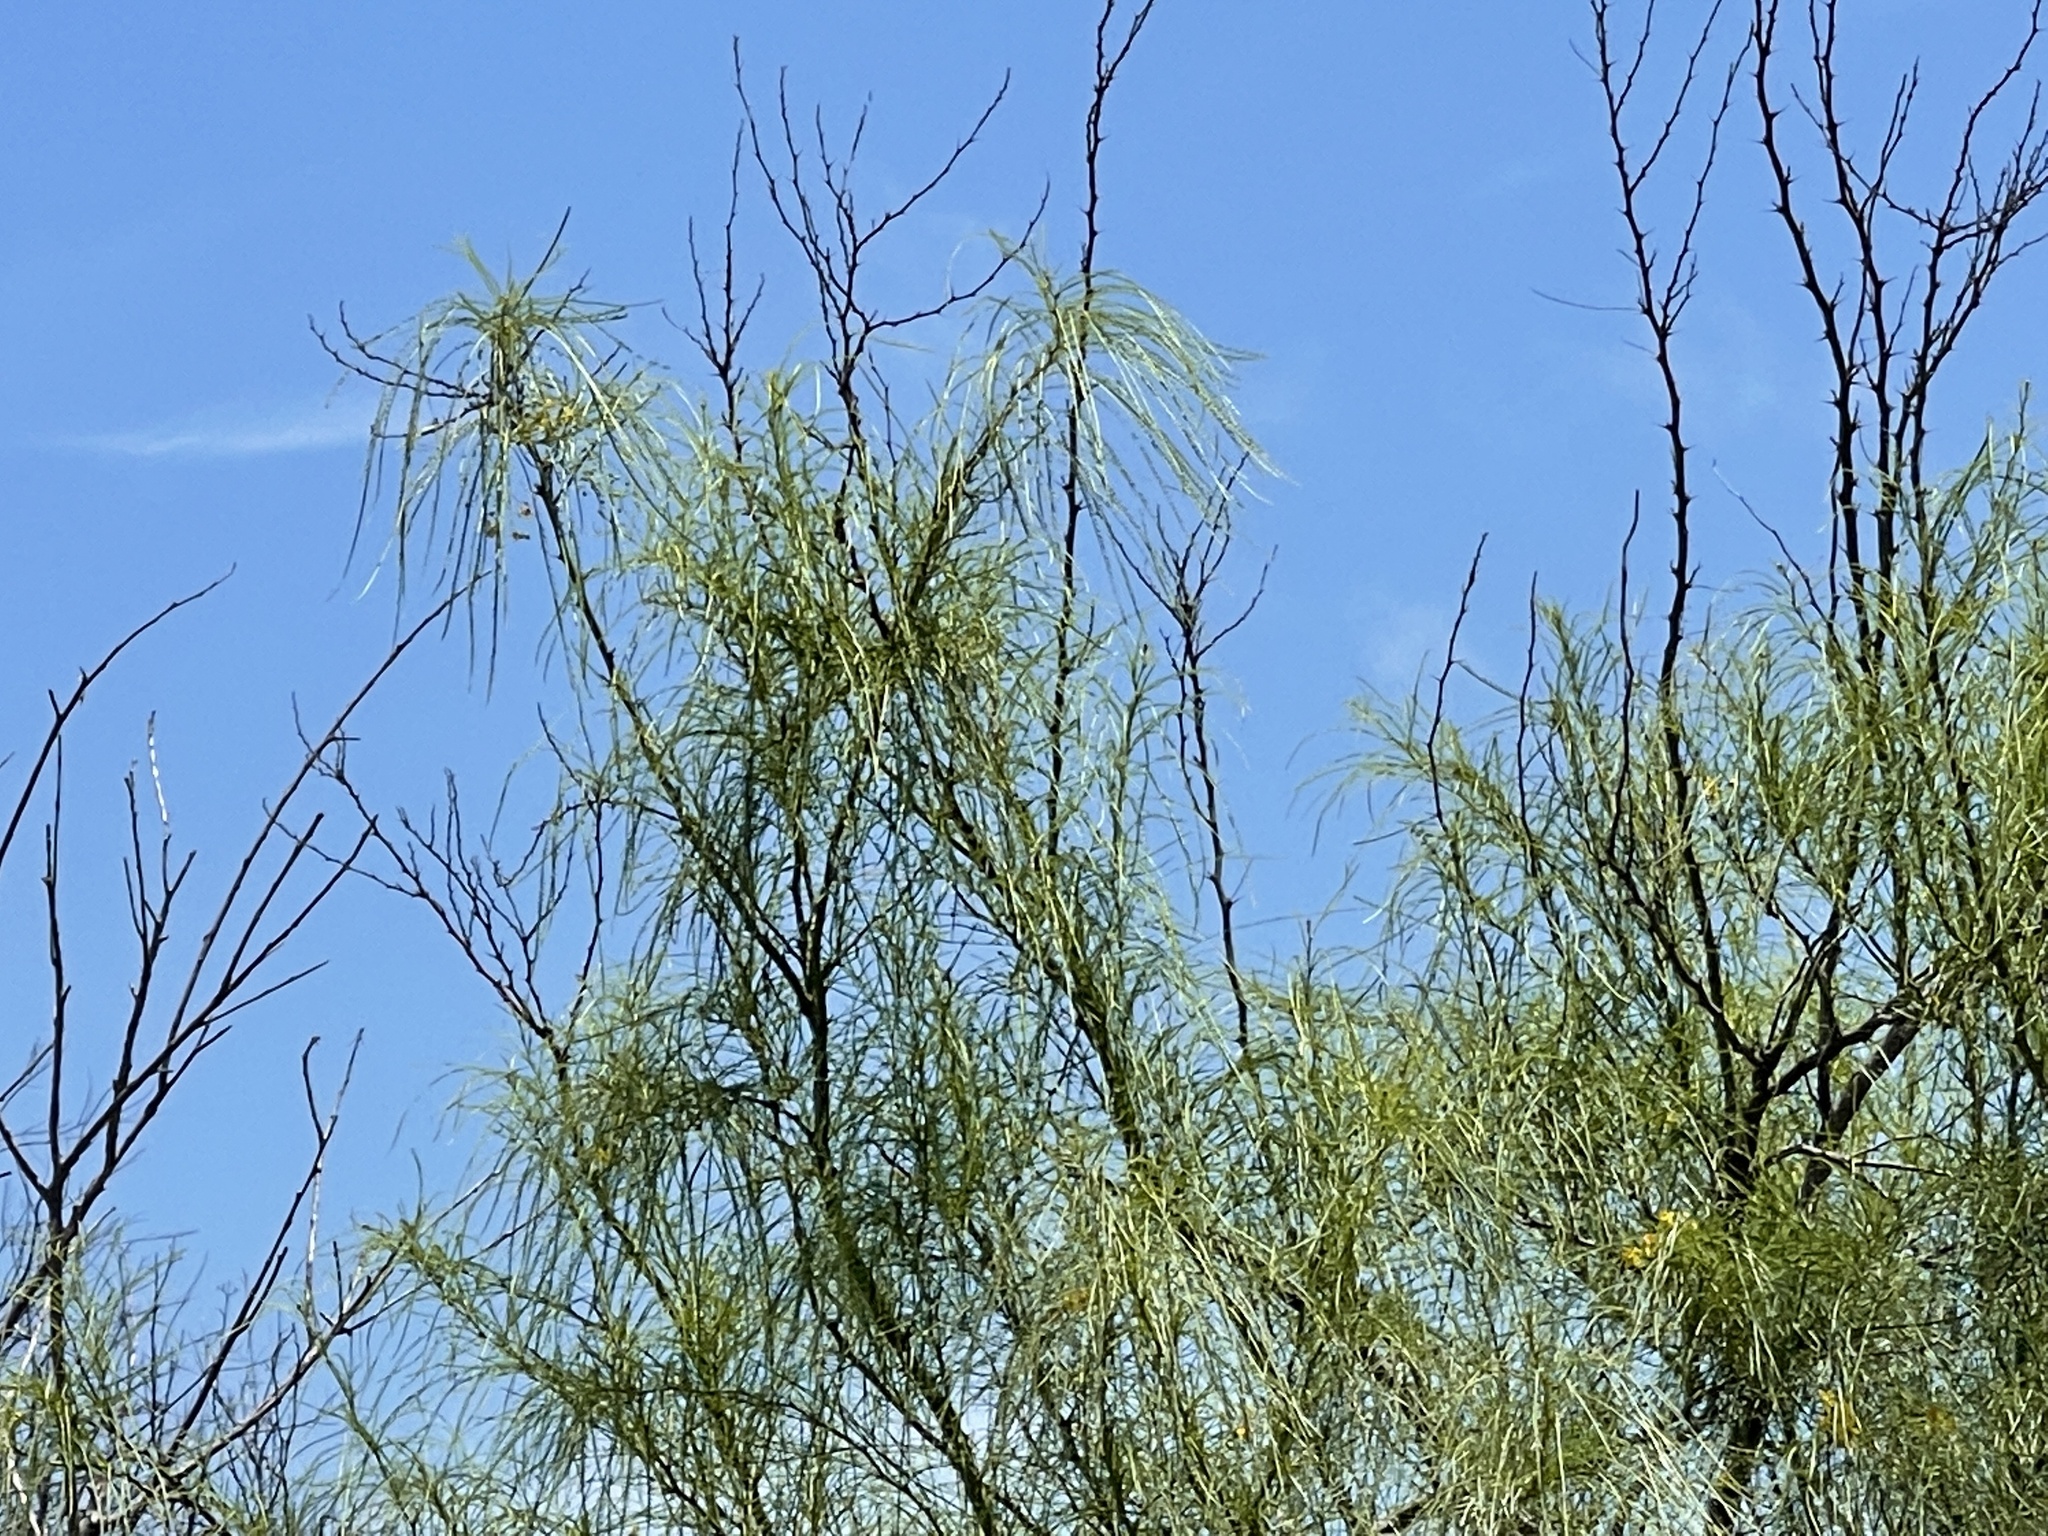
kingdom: Plantae
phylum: Tracheophyta
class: Magnoliopsida
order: Fabales
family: Fabaceae
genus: Parkinsonia
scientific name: Parkinsonia aculeata
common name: Jerusalem thorn
